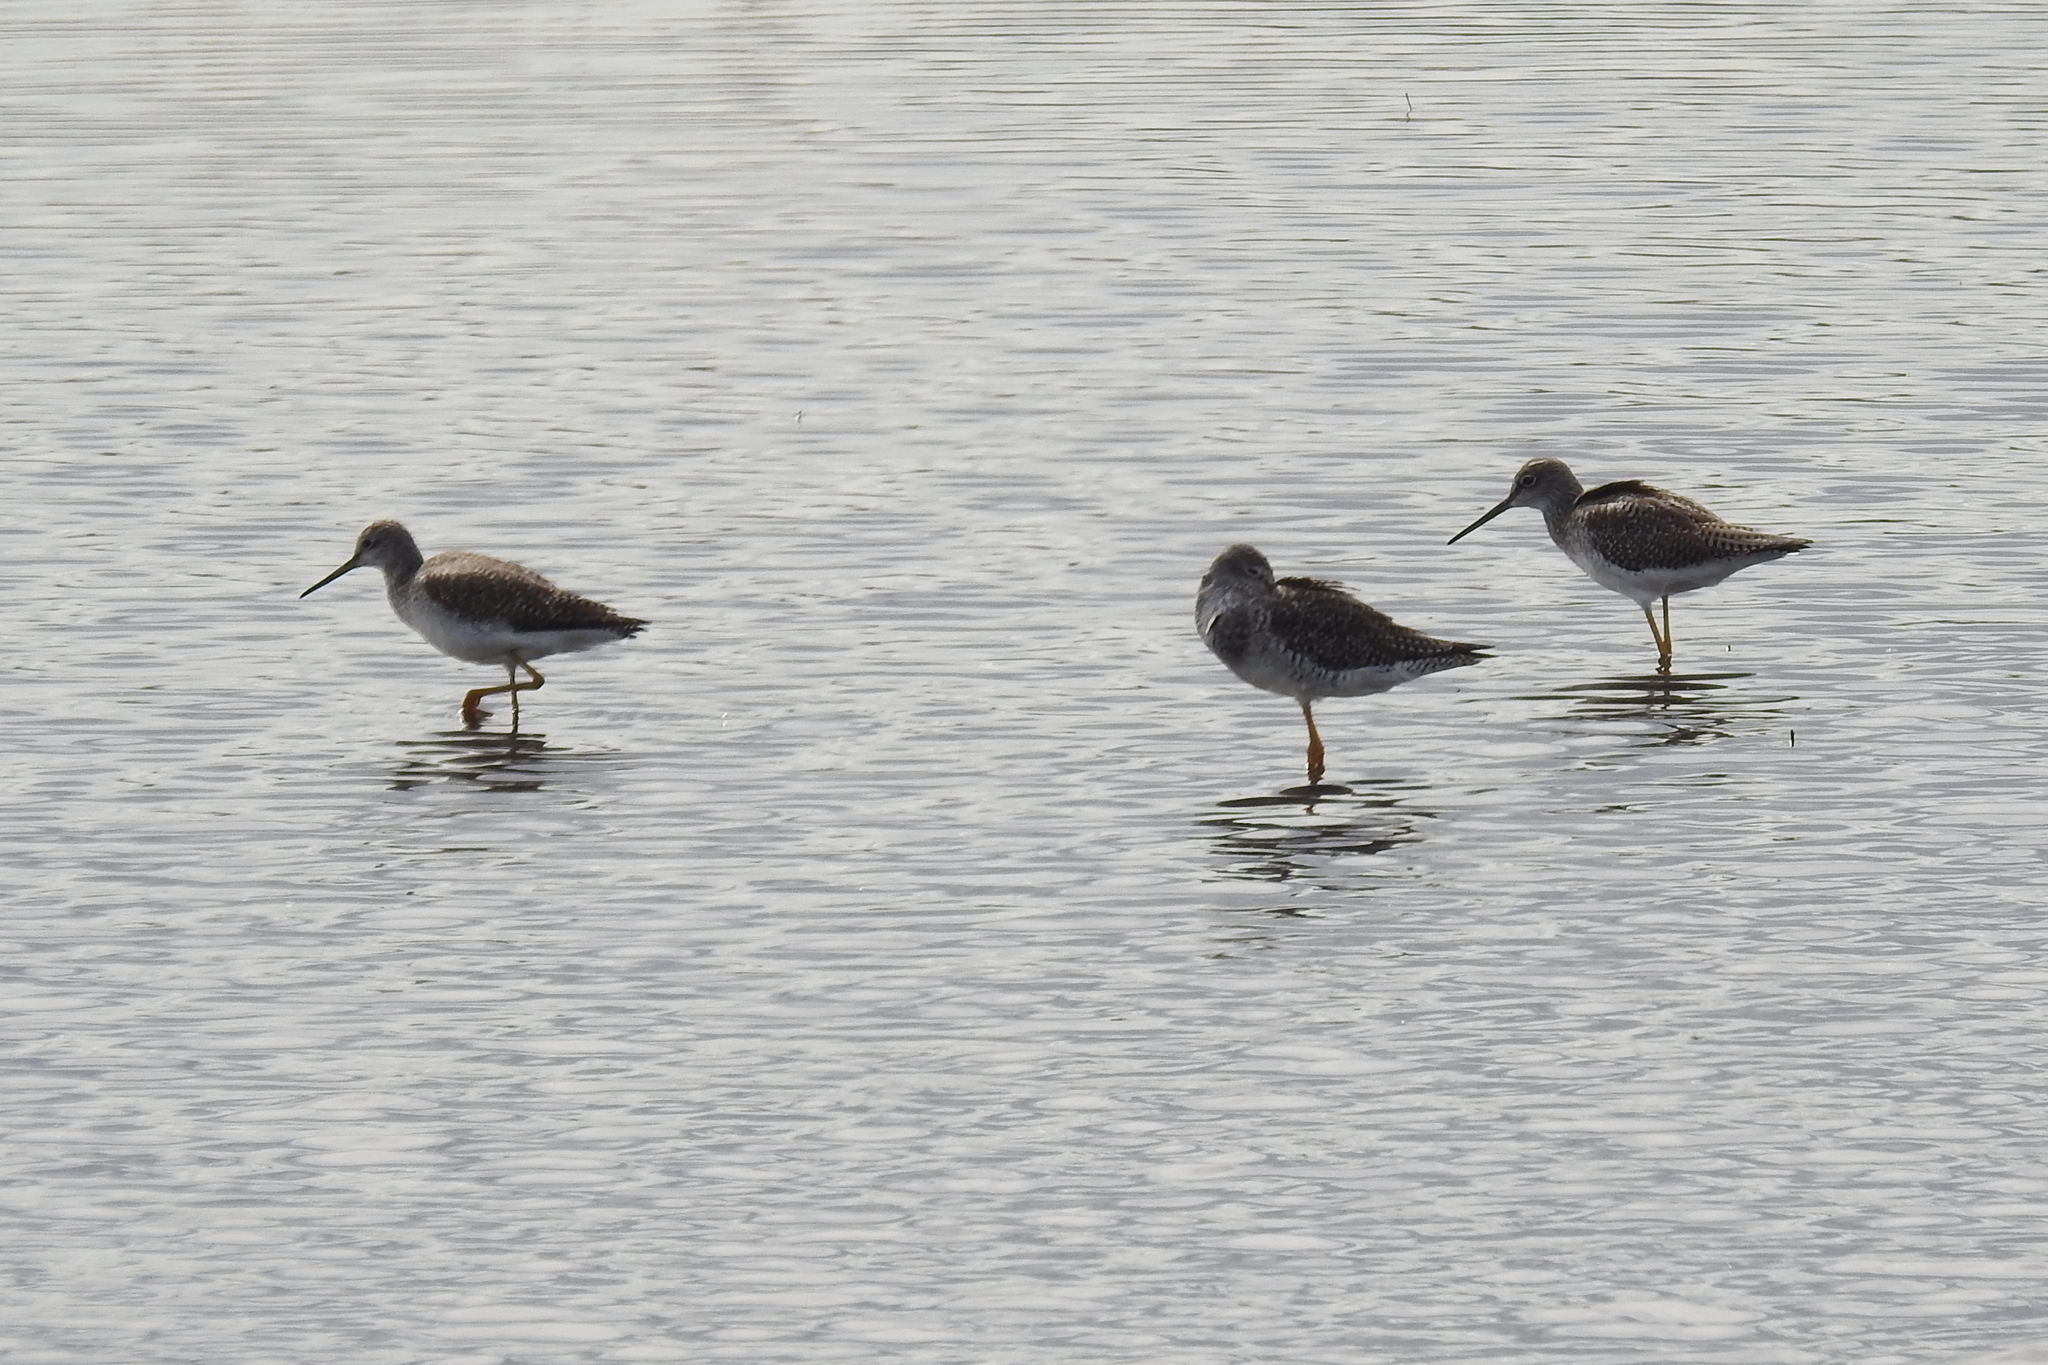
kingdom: Animalia
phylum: Chordata
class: Aves
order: Charadriiformes
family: Scolopacidae
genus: Tringa
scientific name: Tringa melanoleuca
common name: Greater yellowlegs
